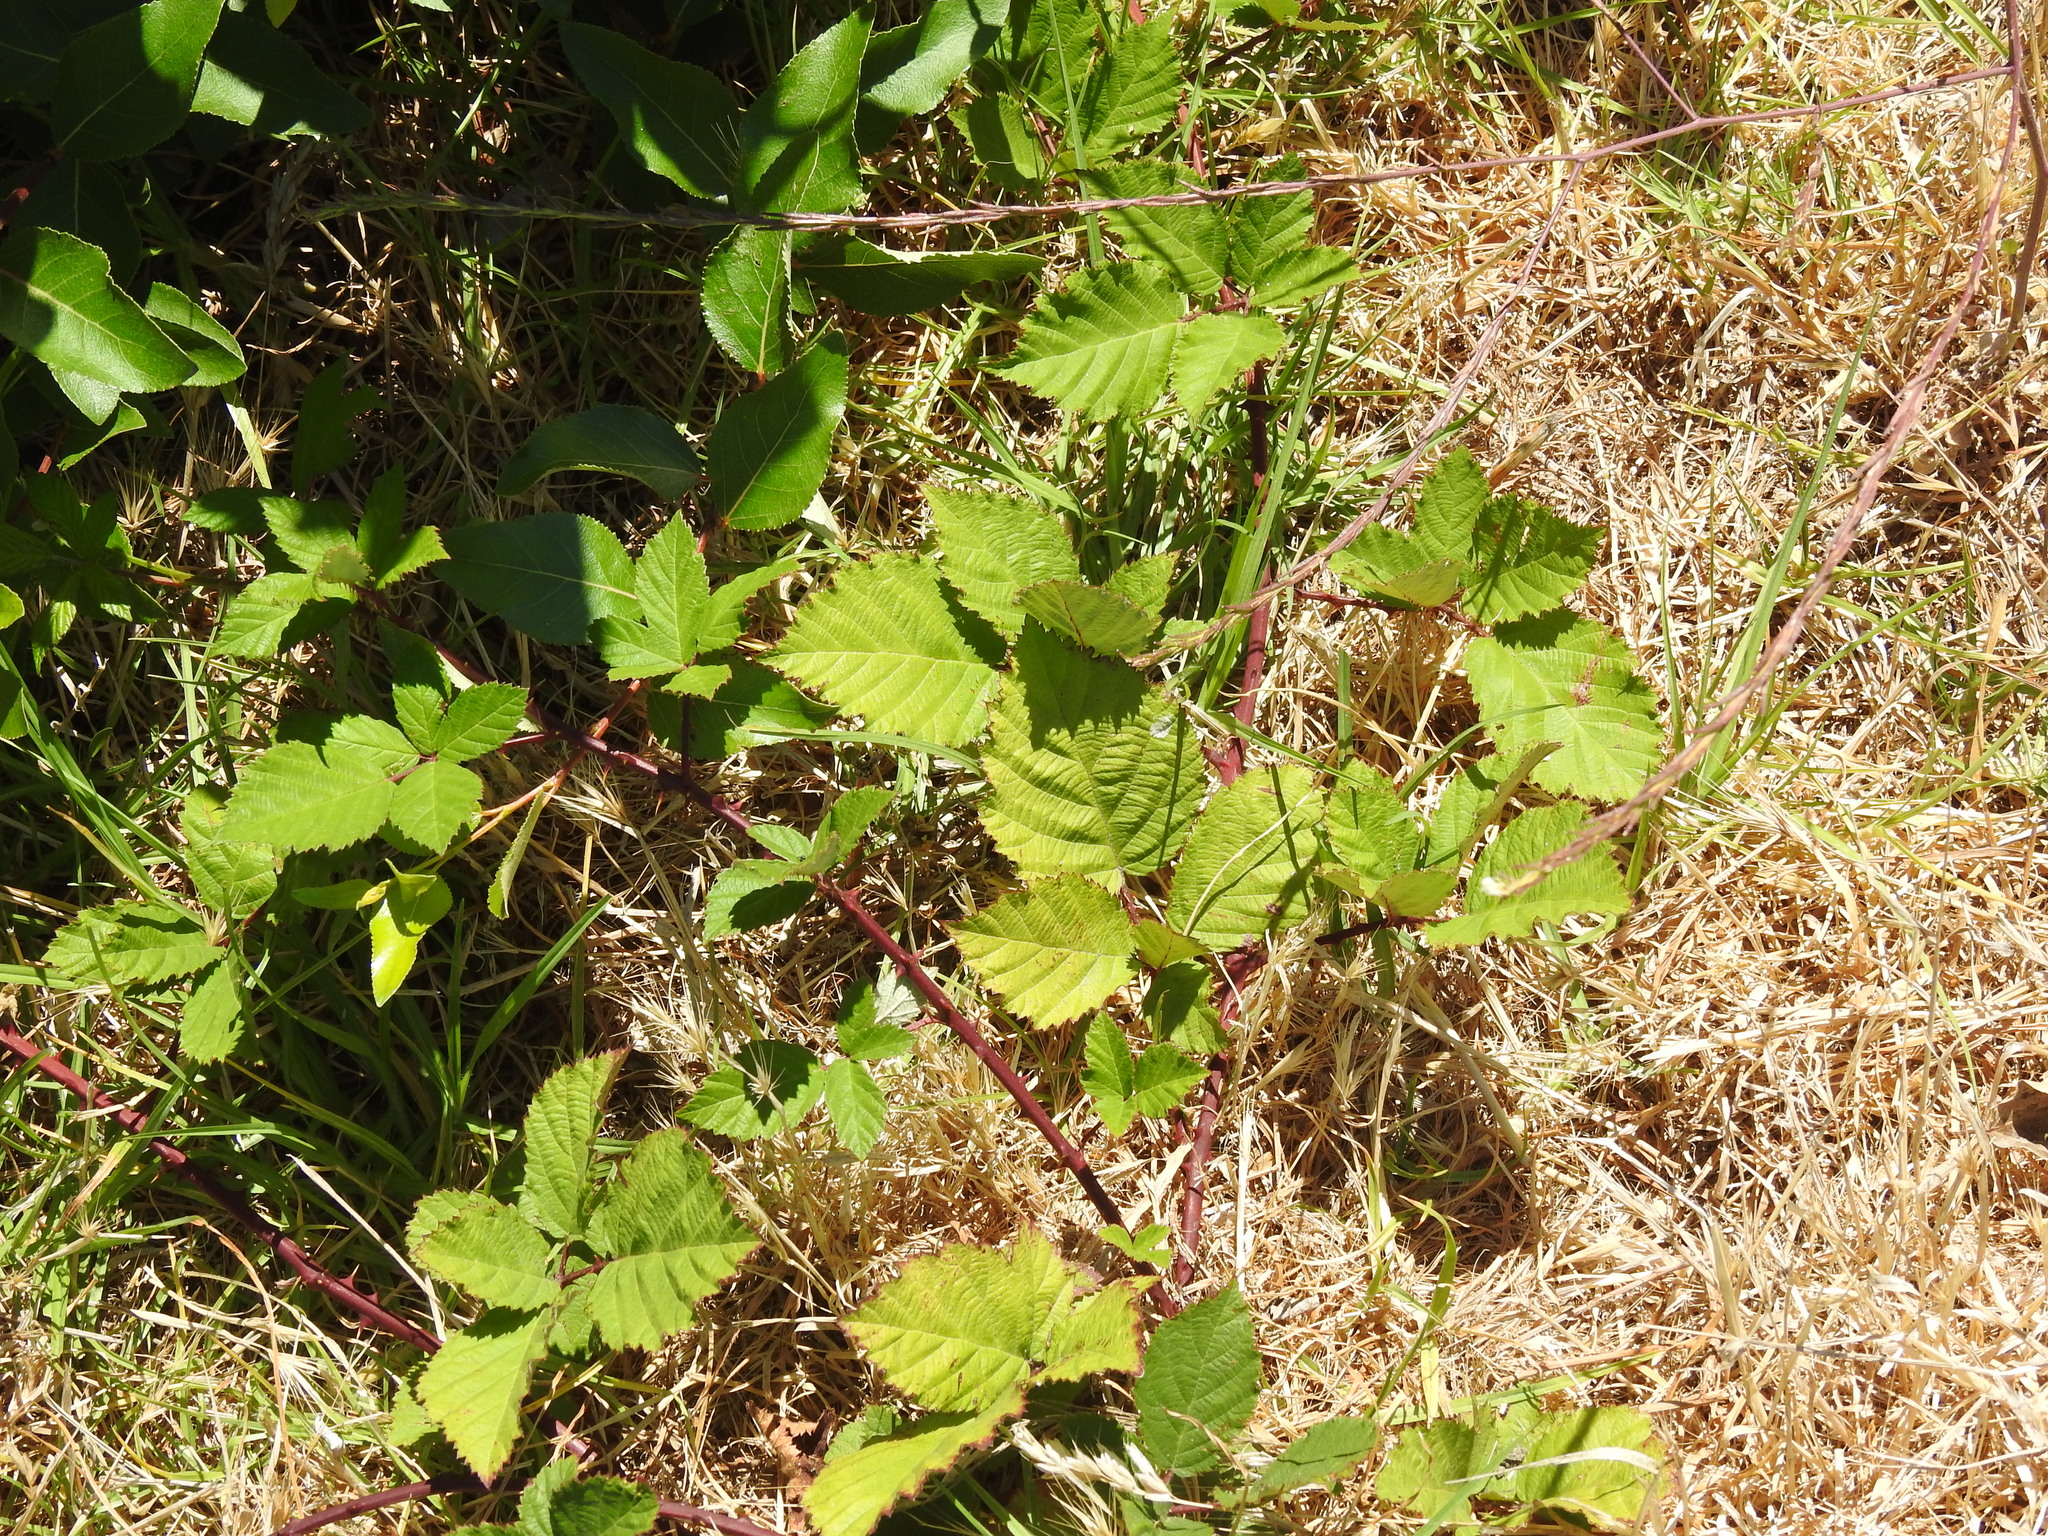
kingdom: Plantae
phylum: Tracheophyta
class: Magnoliopsida
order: Rosales
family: Rosaceae
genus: Rubus
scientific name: Rubus armeniacus
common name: Himalayan blackberry
